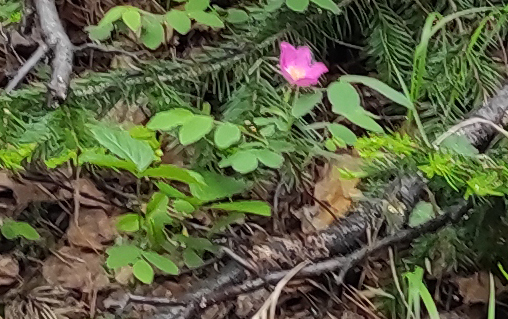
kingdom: Plantae
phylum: Tracheophyta
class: Pinopsida
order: Pinales
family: Pinaceae
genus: Abies
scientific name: Abies sibirica
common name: Siberian fir
